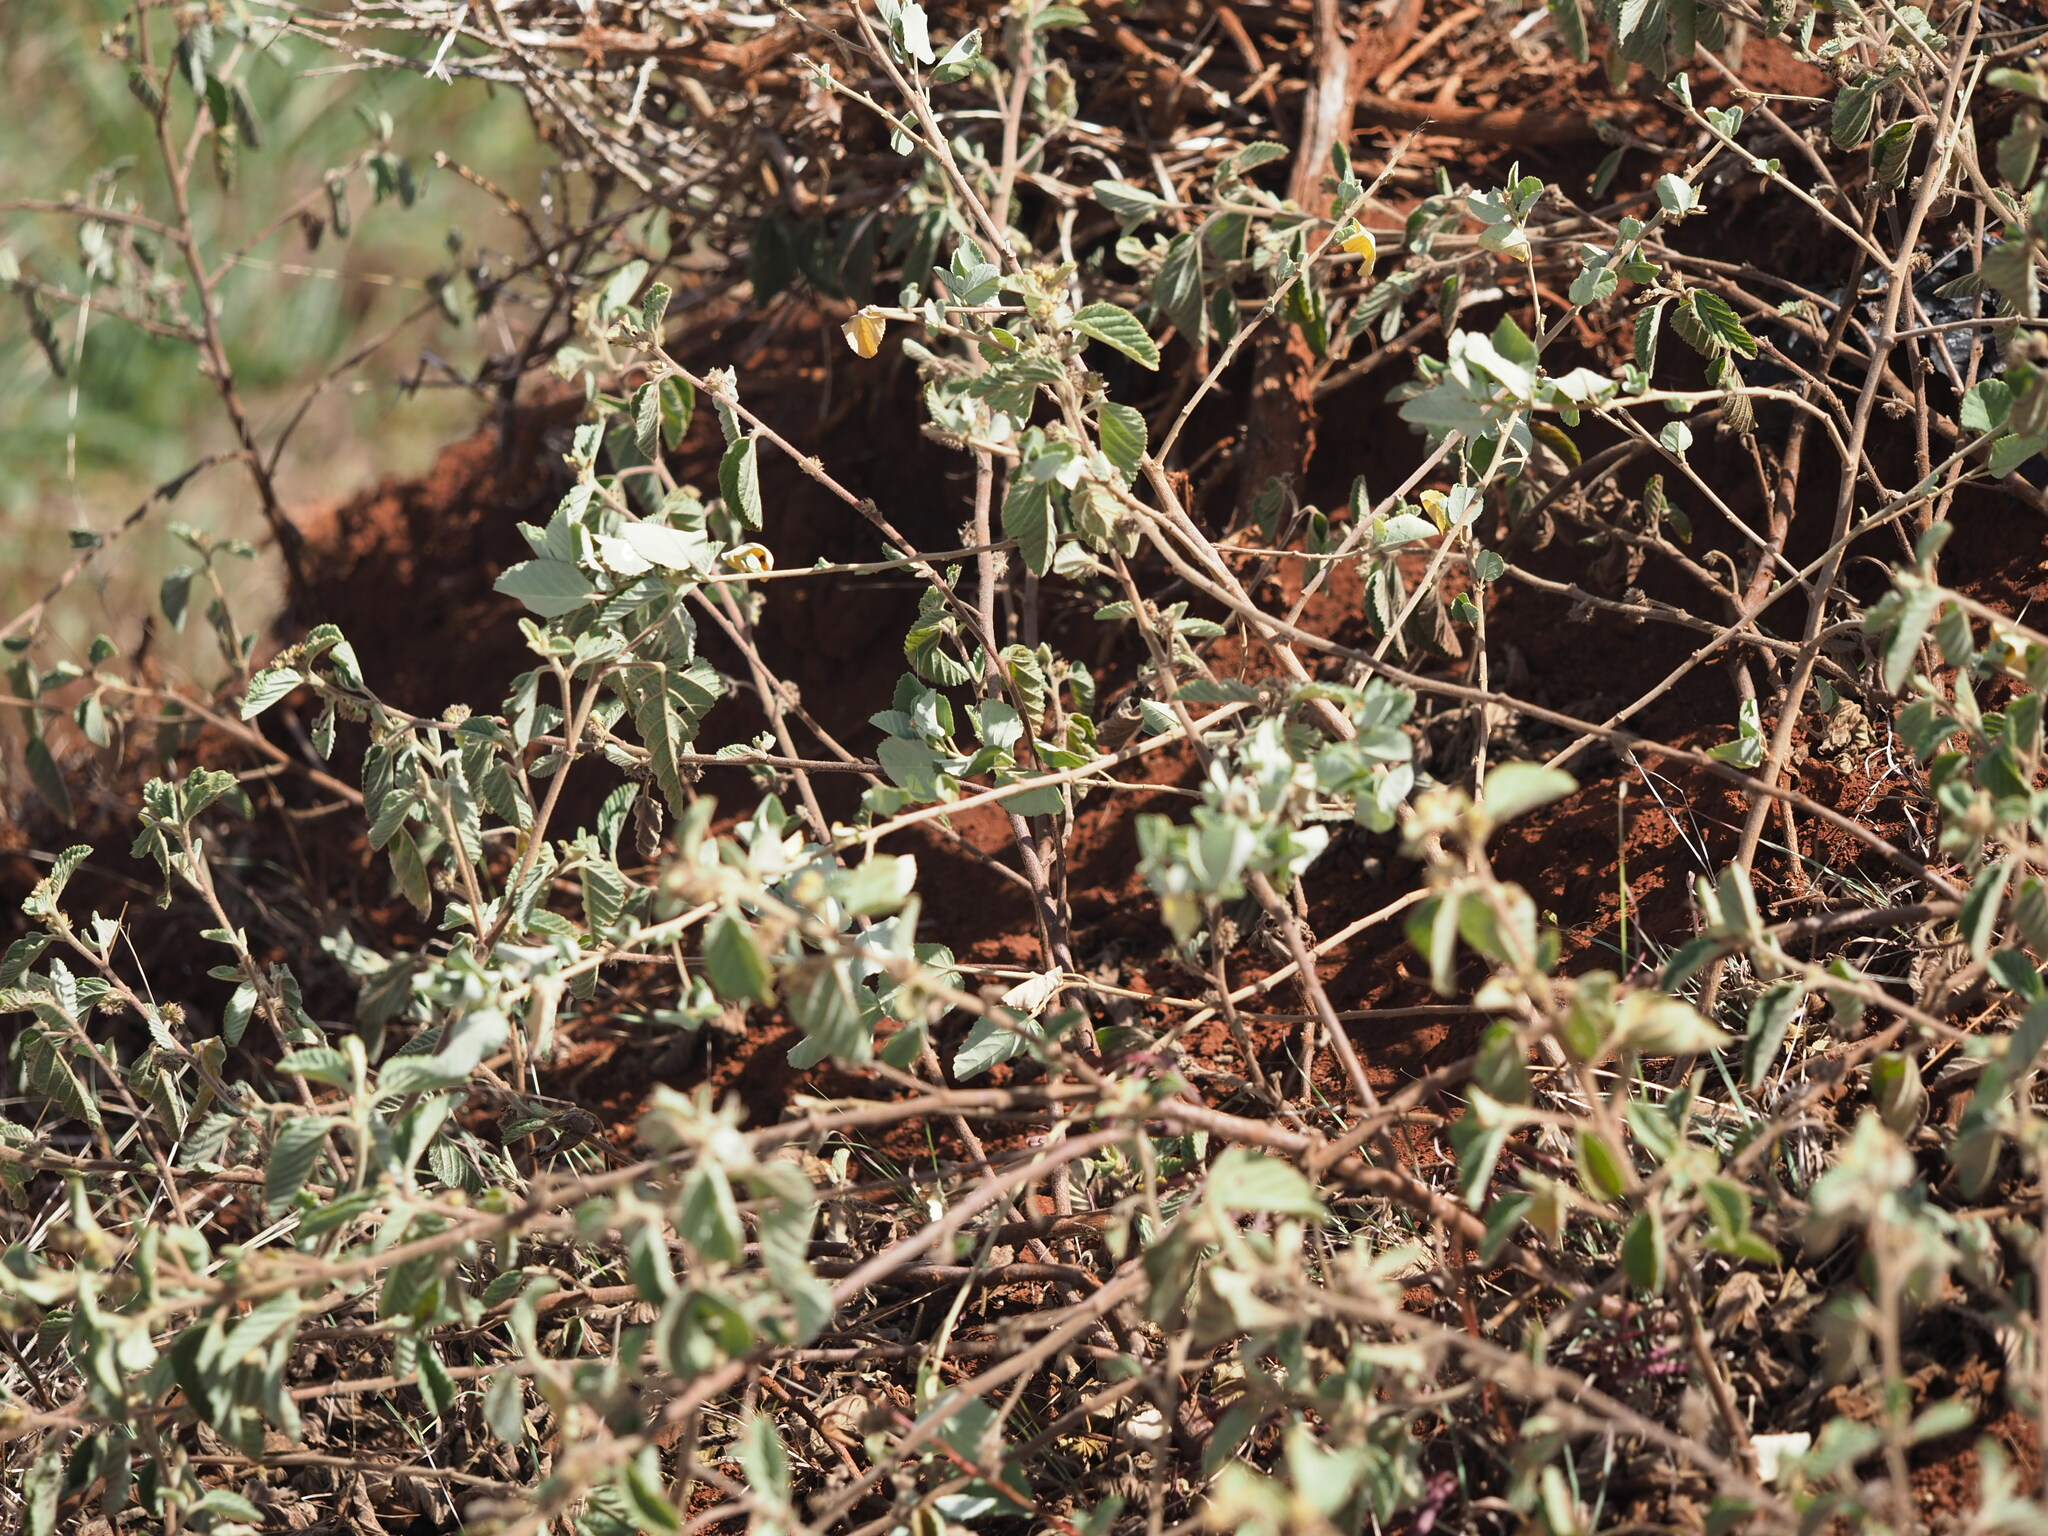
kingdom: Plantae
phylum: Tracheophyta
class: Magnoliopsida
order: Malvales
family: Malvaceae
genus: Sida
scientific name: Sida fallax
